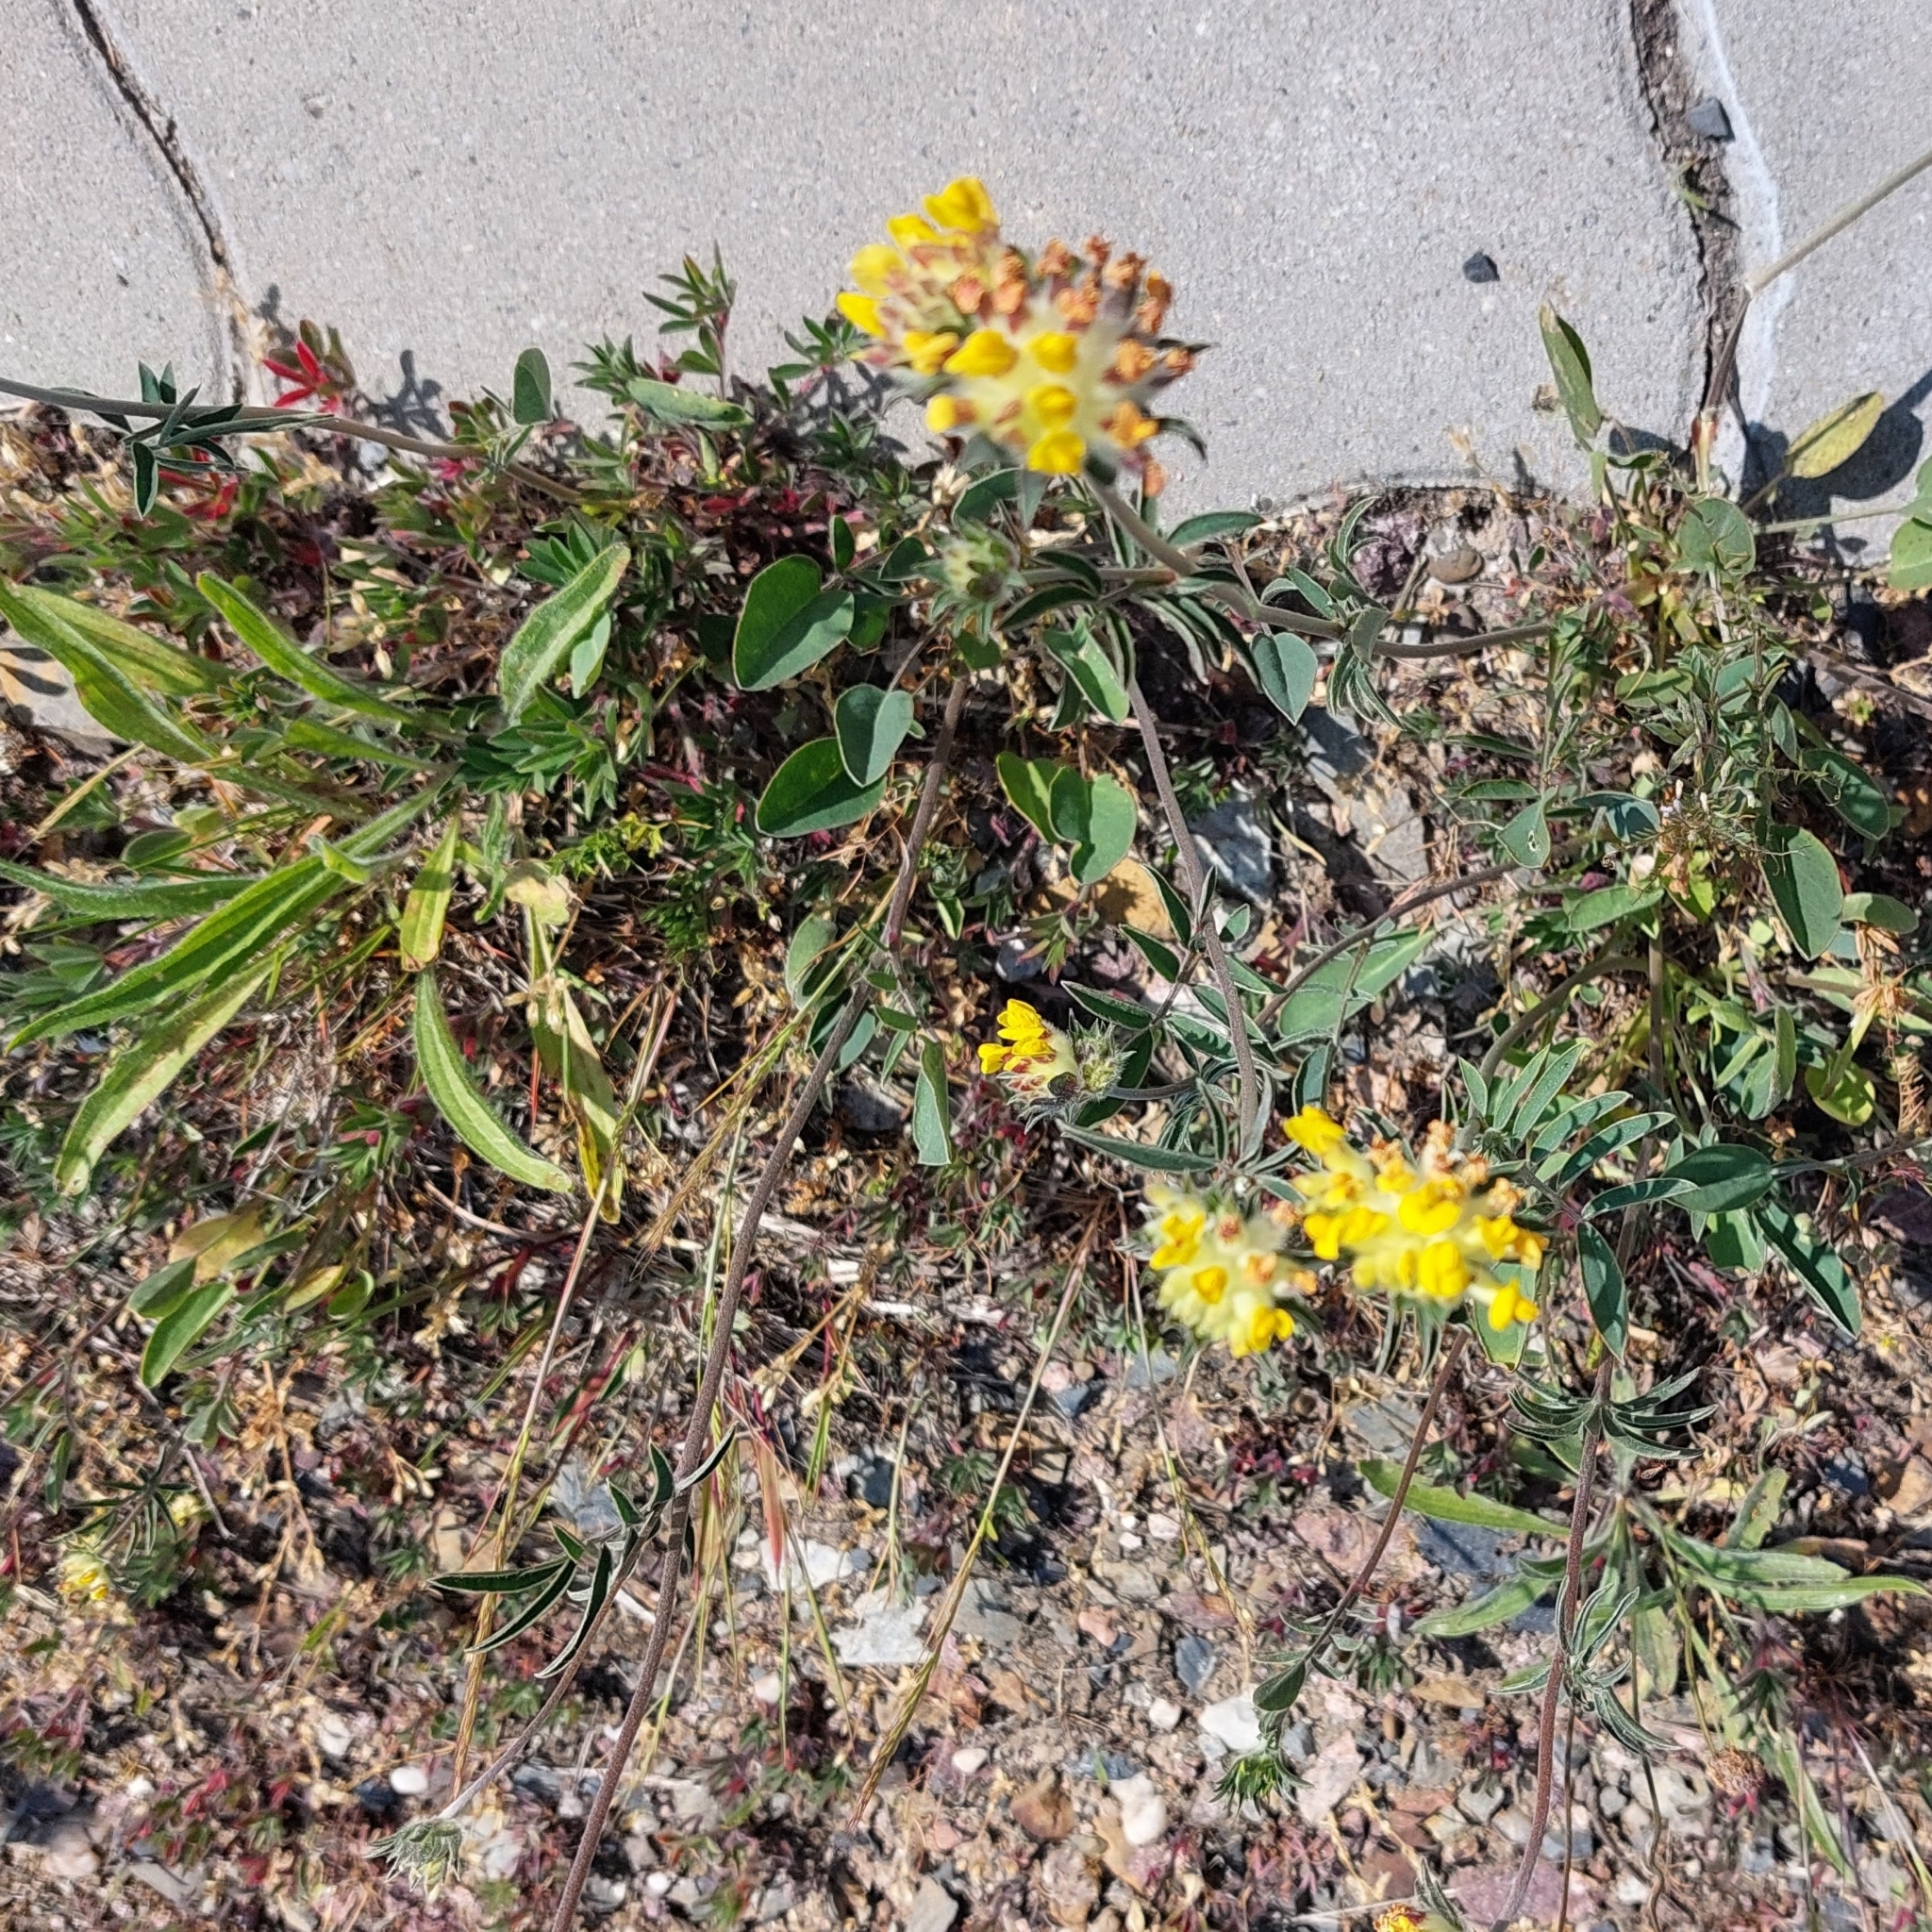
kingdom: Plantae
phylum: Tracheophyta
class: Magnoliopsida
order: Fabales
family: Fabaceae
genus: Anthyllis
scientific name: Anthyllis vulneraria
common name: Kidney vetch
